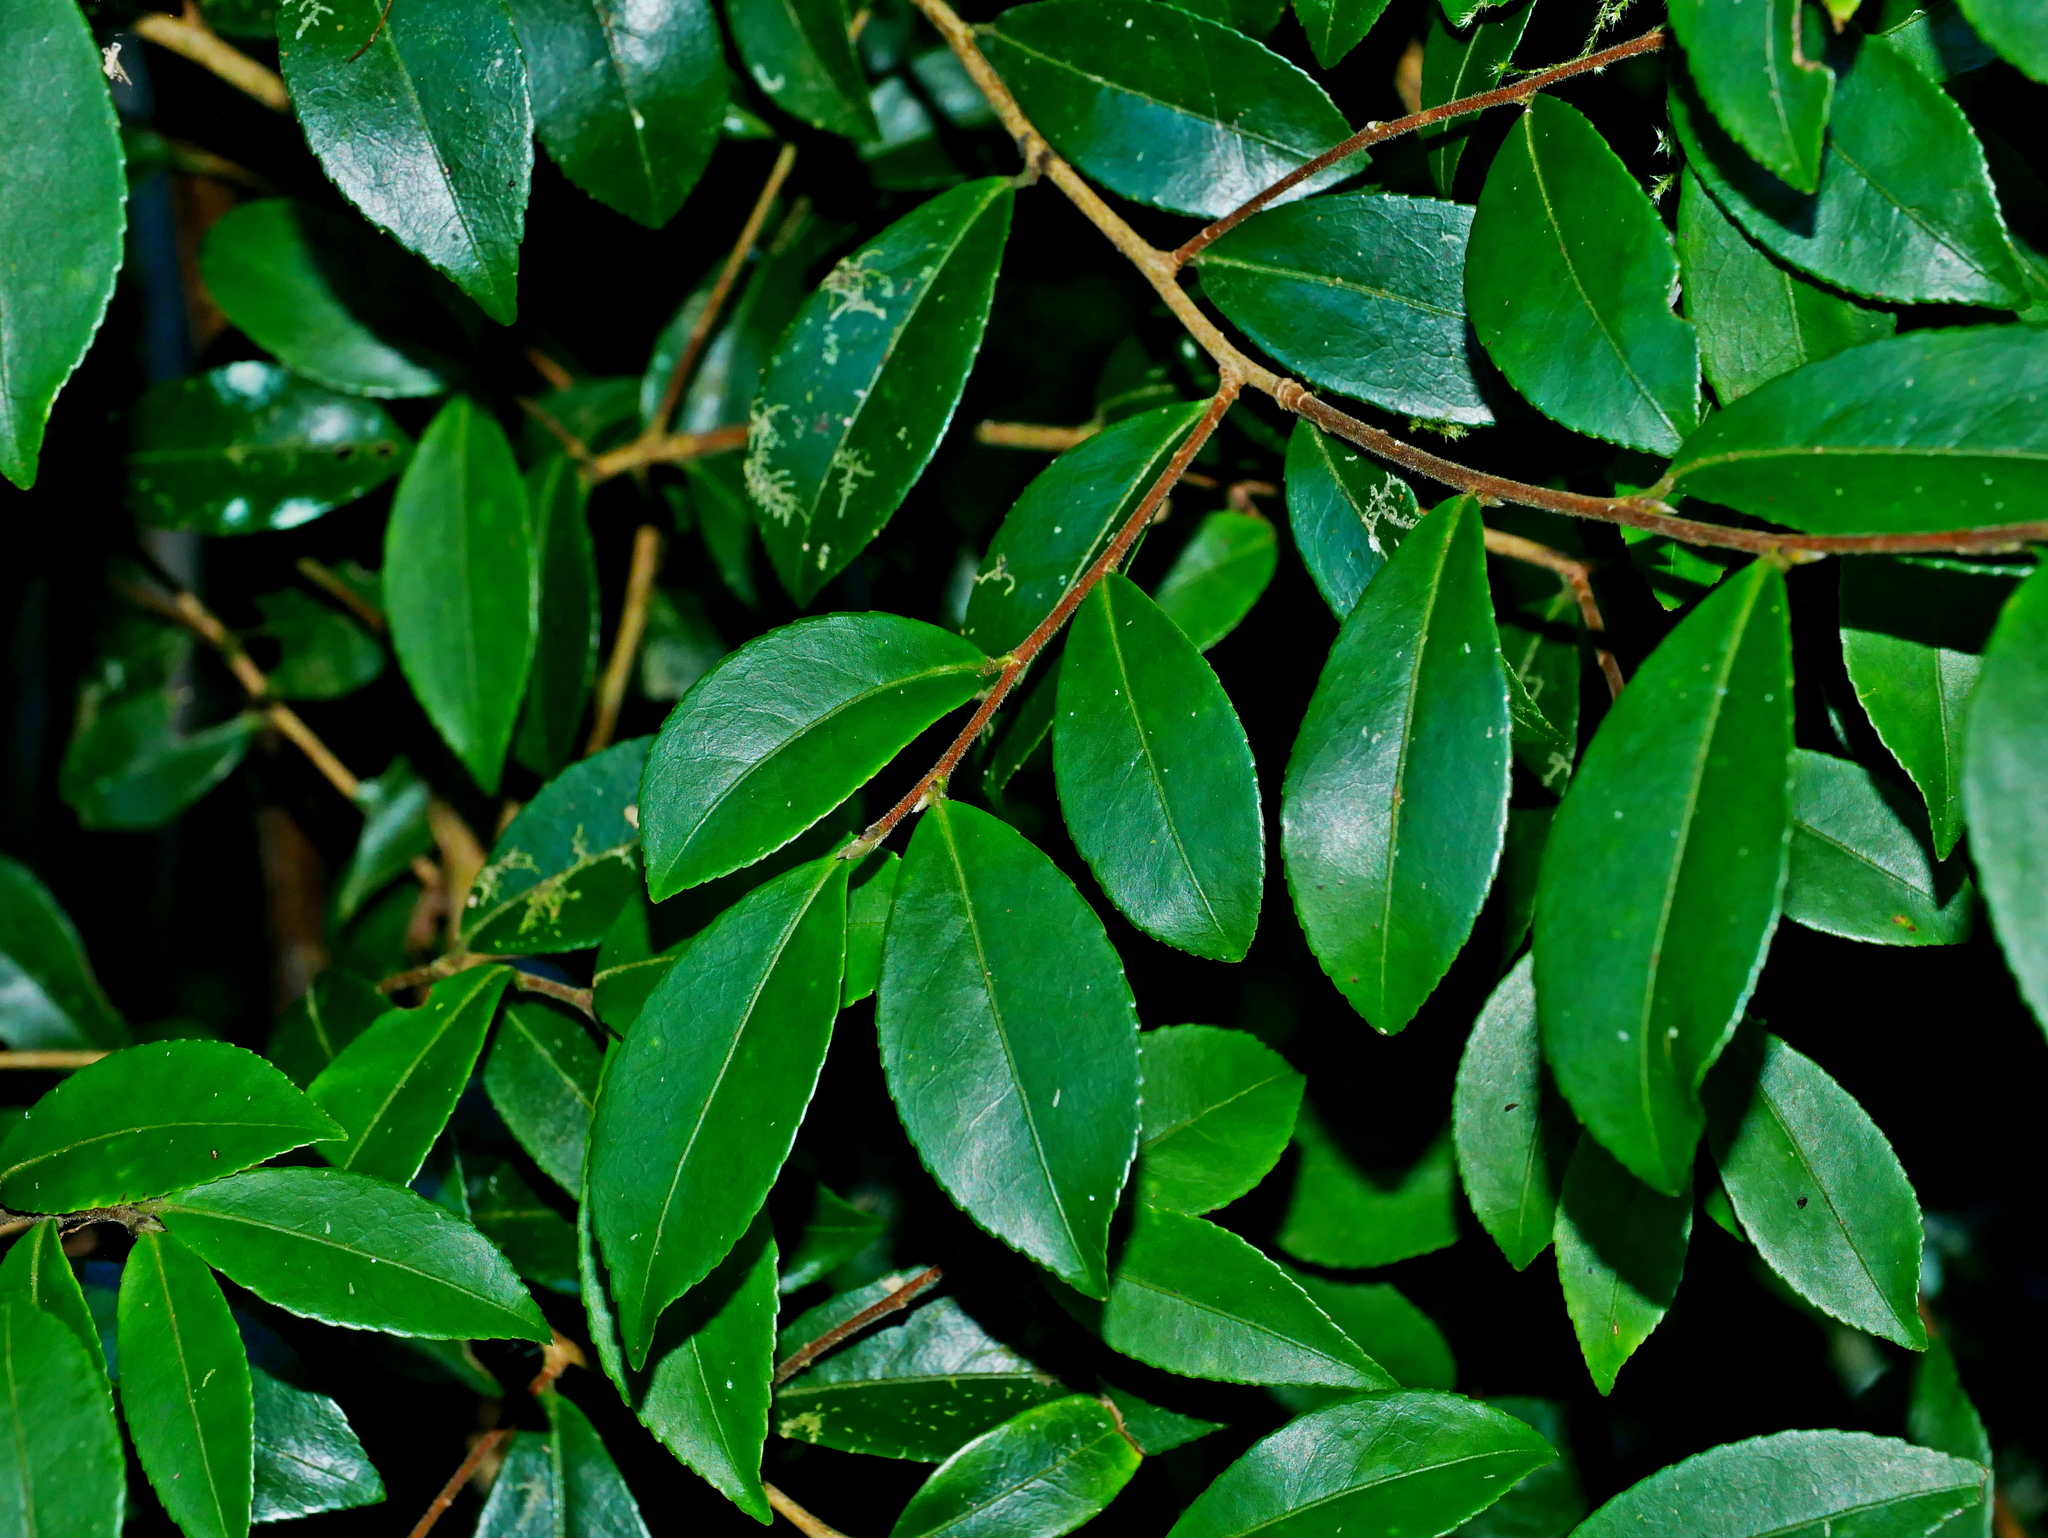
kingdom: Plantae
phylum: Tracheophyta
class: Magnoliopsida
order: Ericales
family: Theaceae
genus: Camellia
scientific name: Camellia brevistyla
